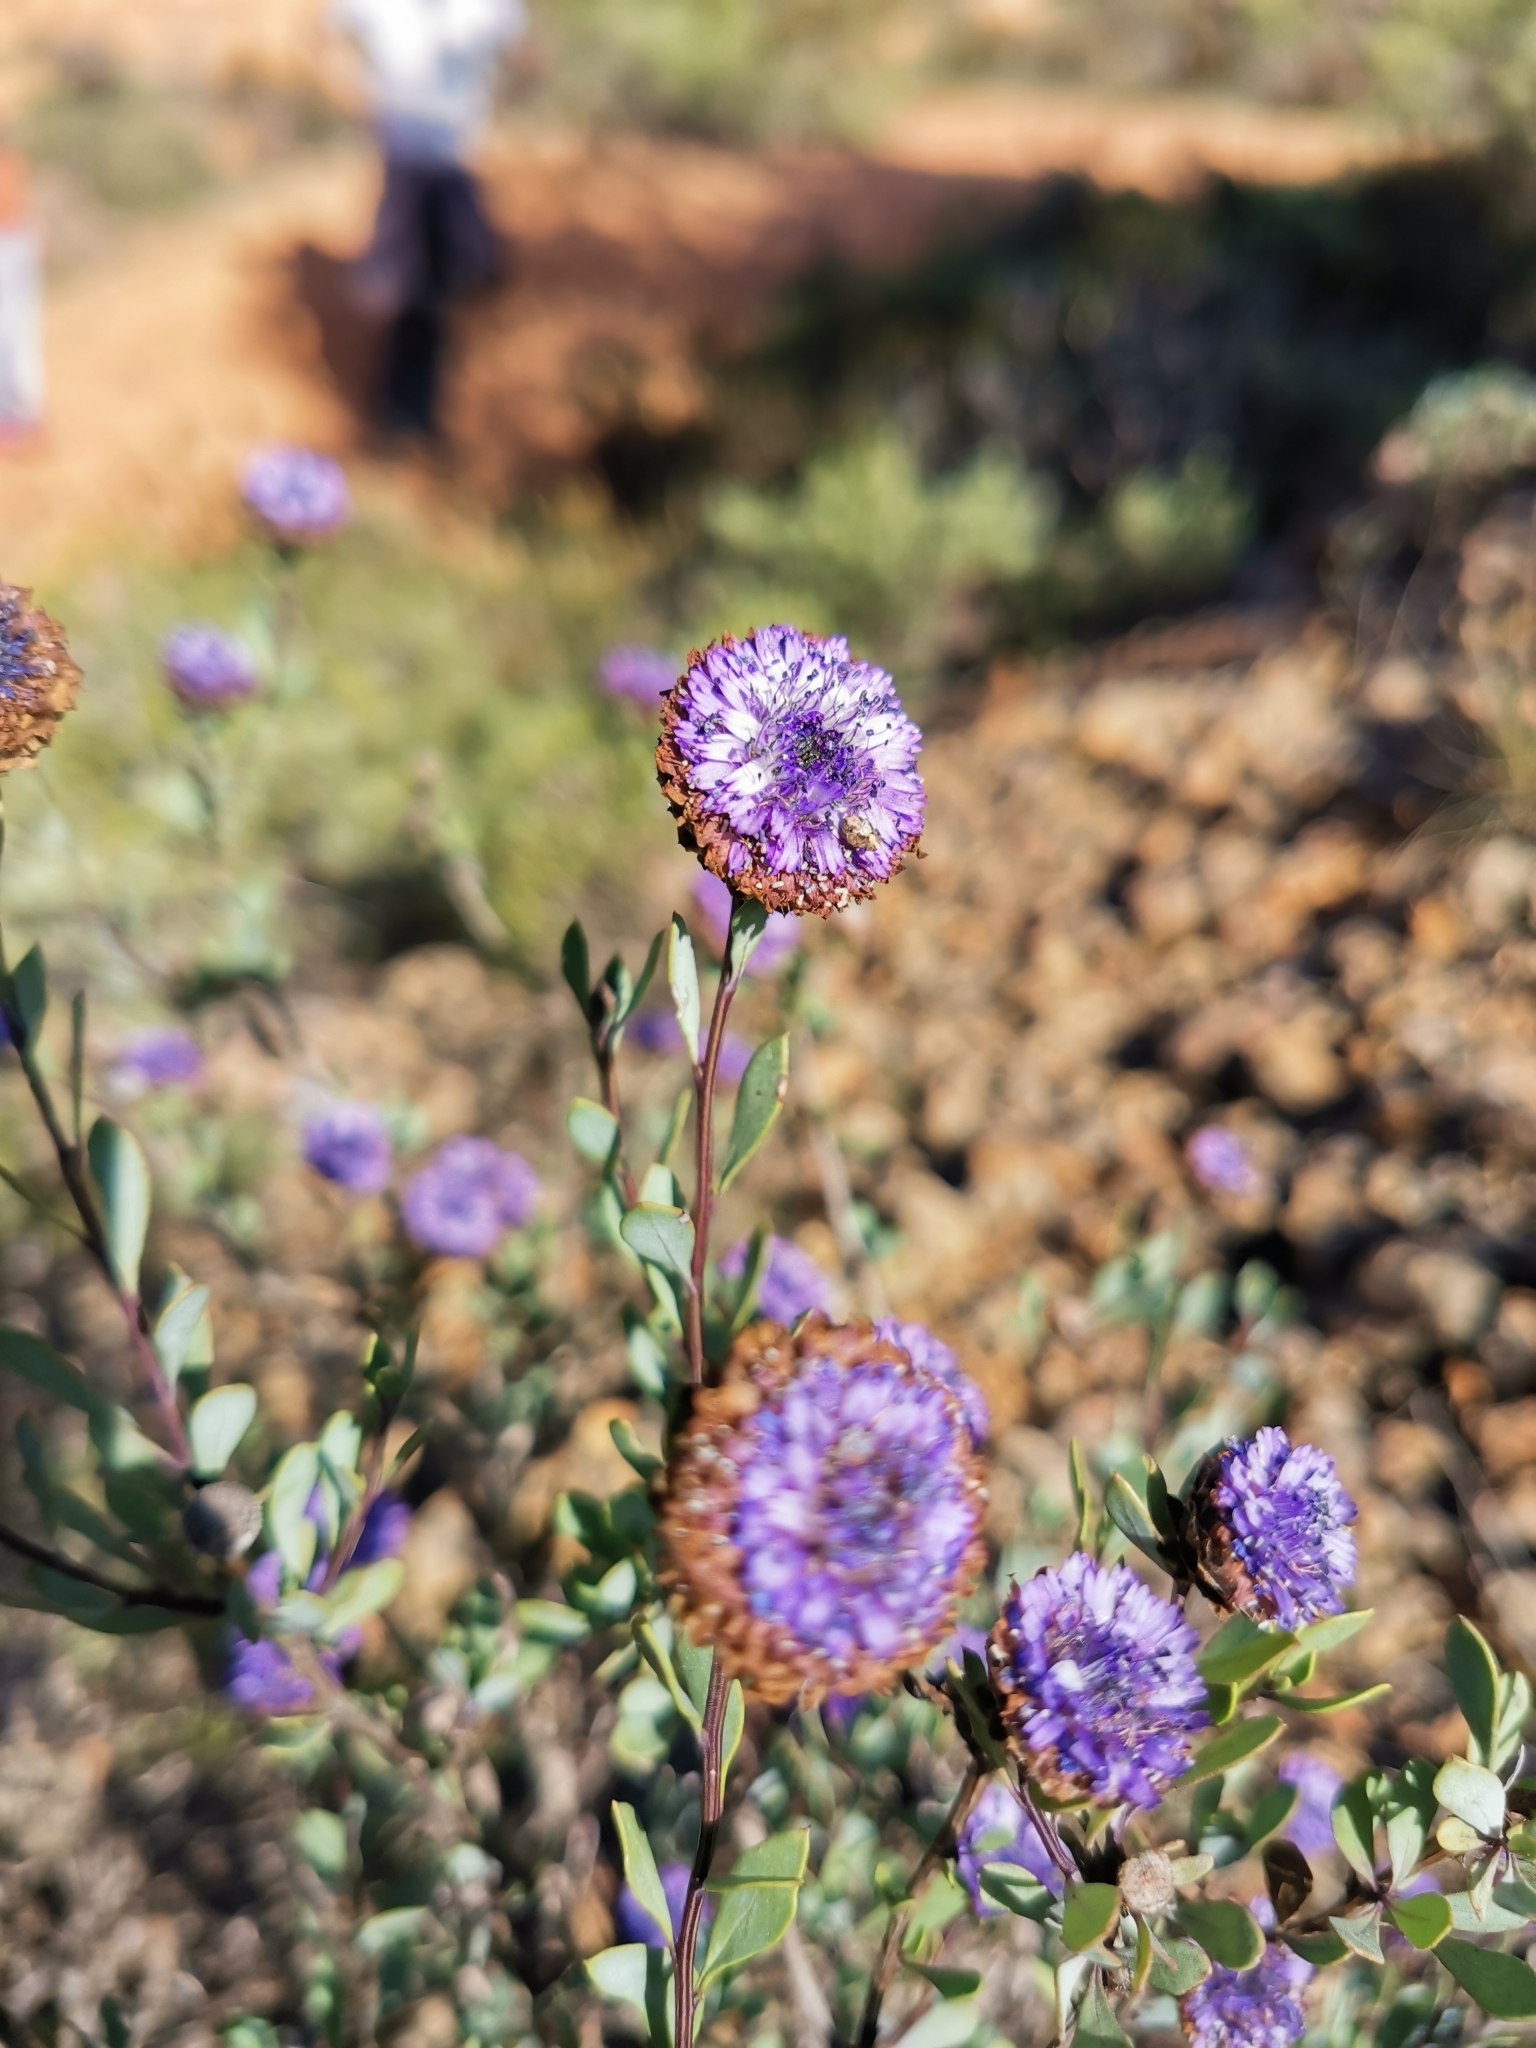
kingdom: Plantae
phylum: Tracheophyta
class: Magnoliopsida
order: Lamiales
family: Plantaginaceae
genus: Globularia
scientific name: Globularia alypum
